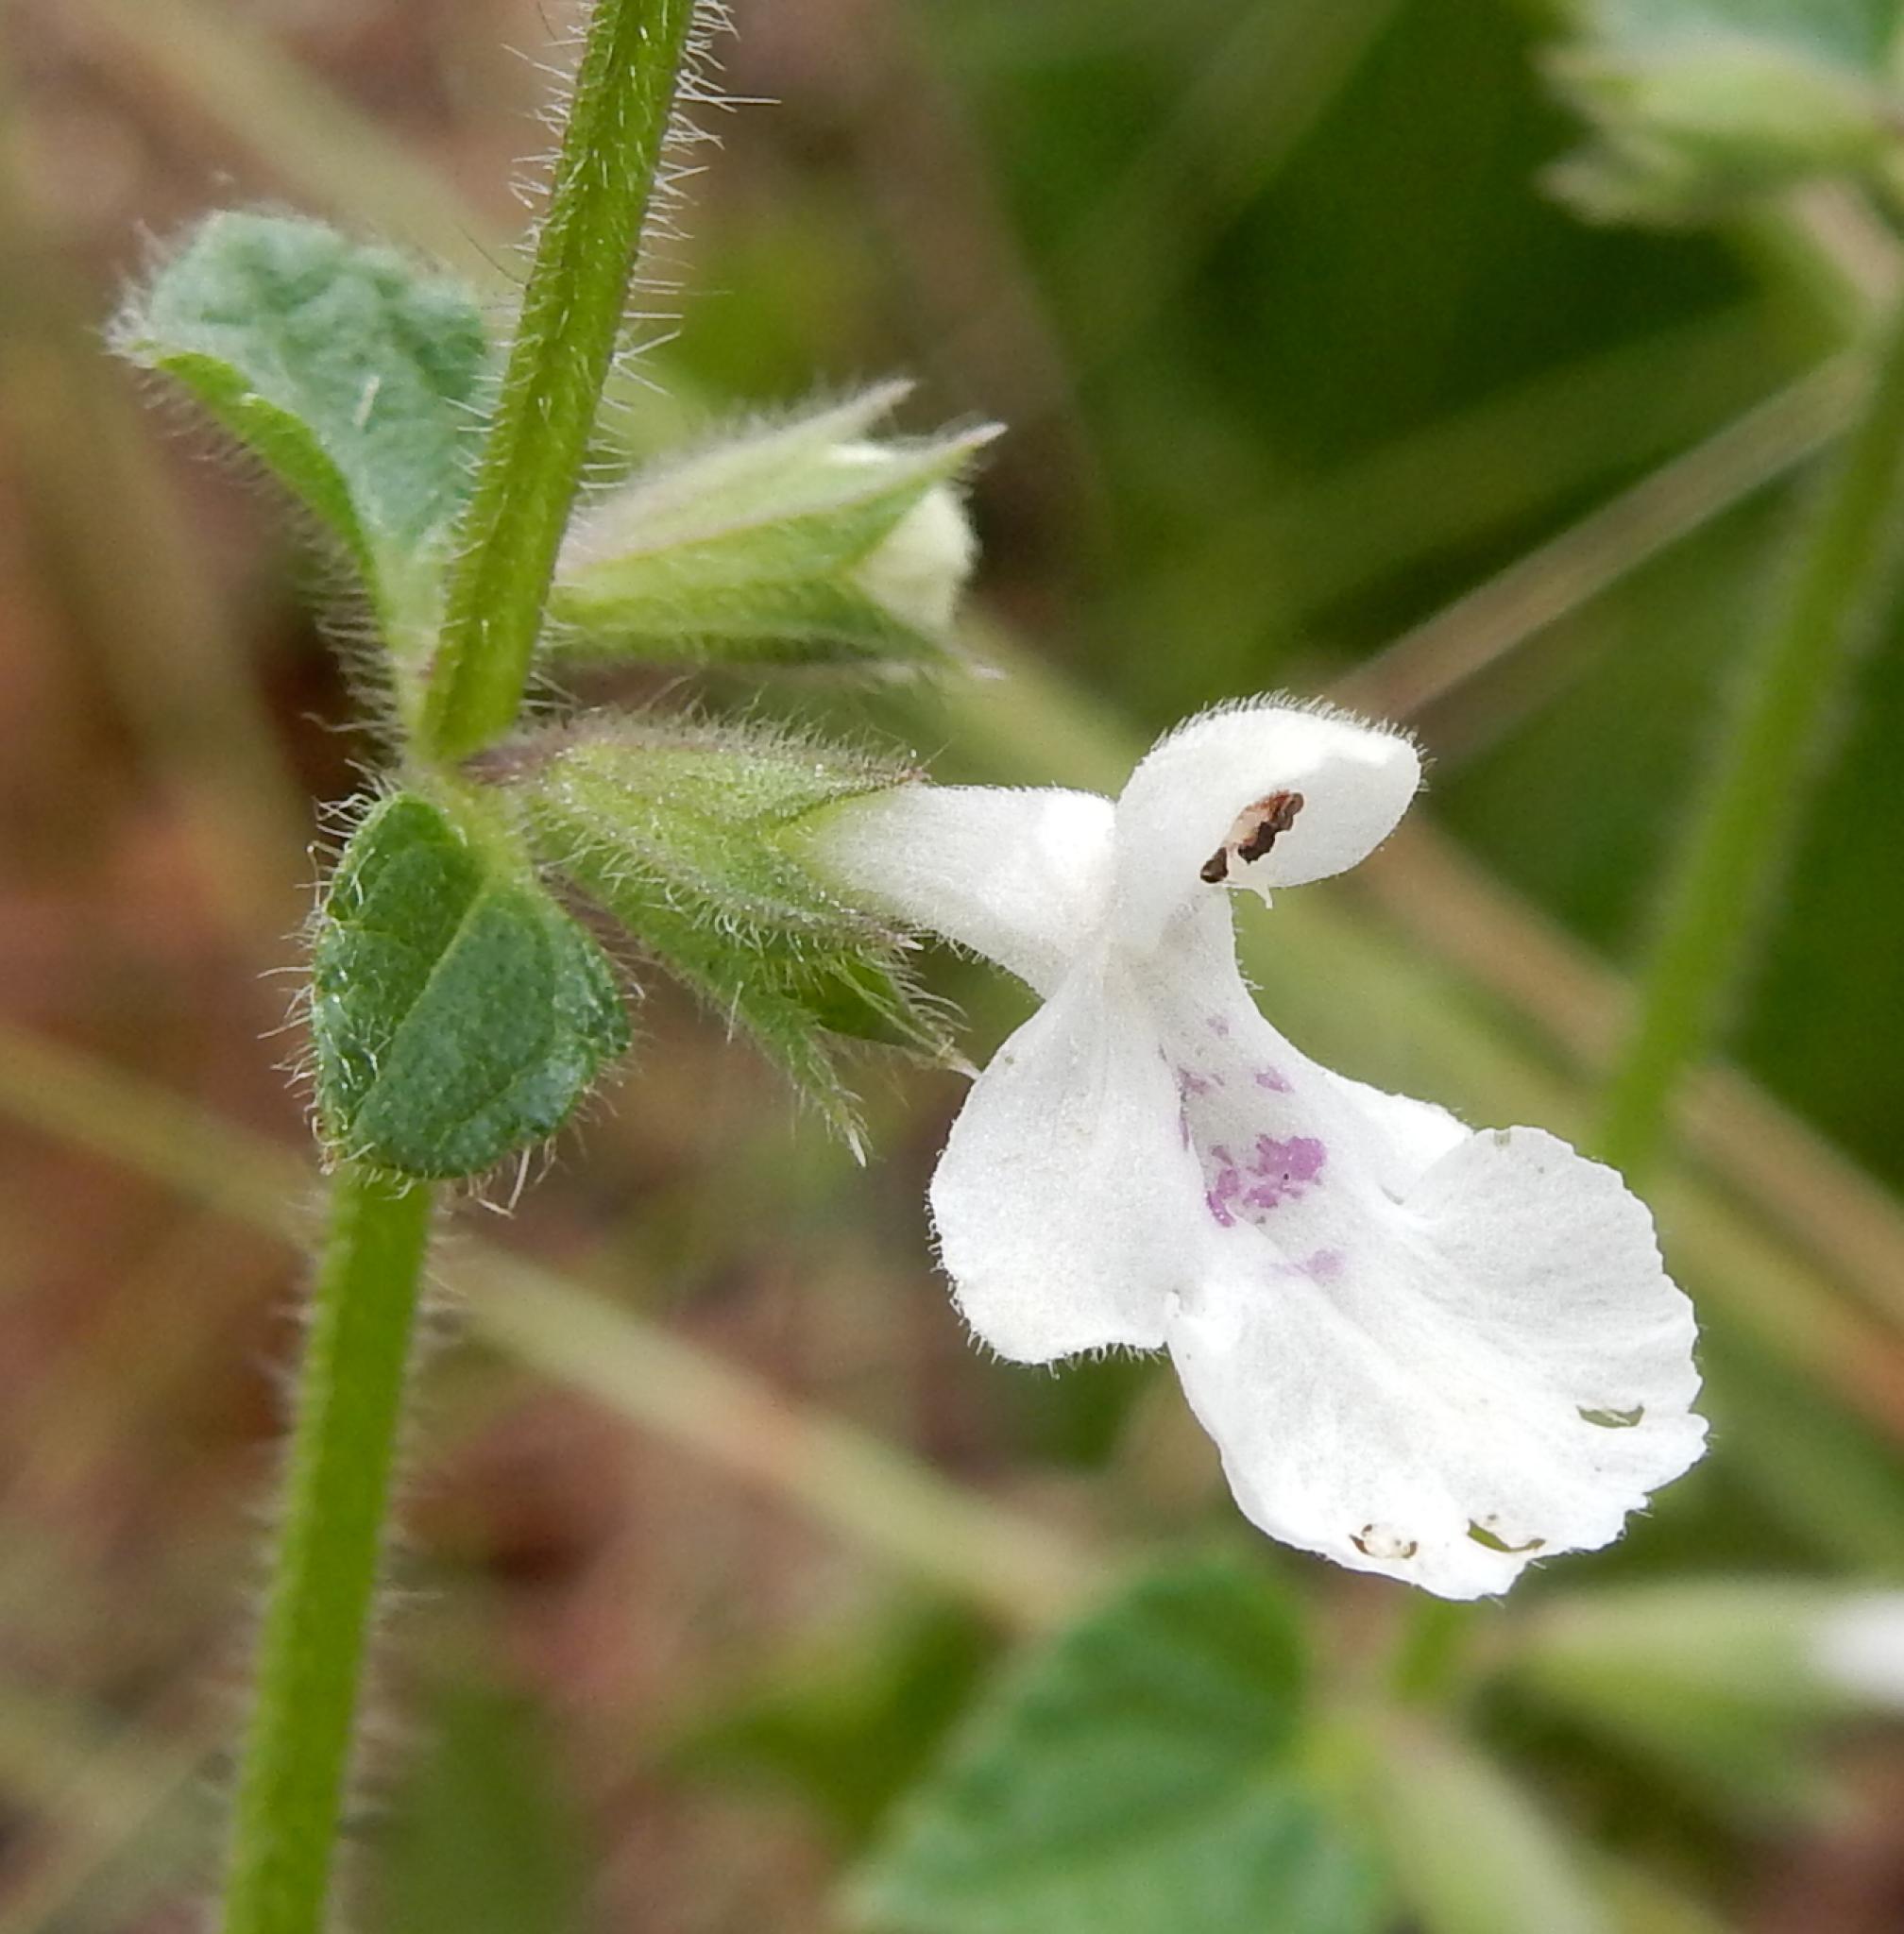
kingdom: Plantae
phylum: Tracheophyta
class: Magnoliopsida
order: Lamiales
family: Lamiaceae
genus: Stachys
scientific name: Stachys natalensis
